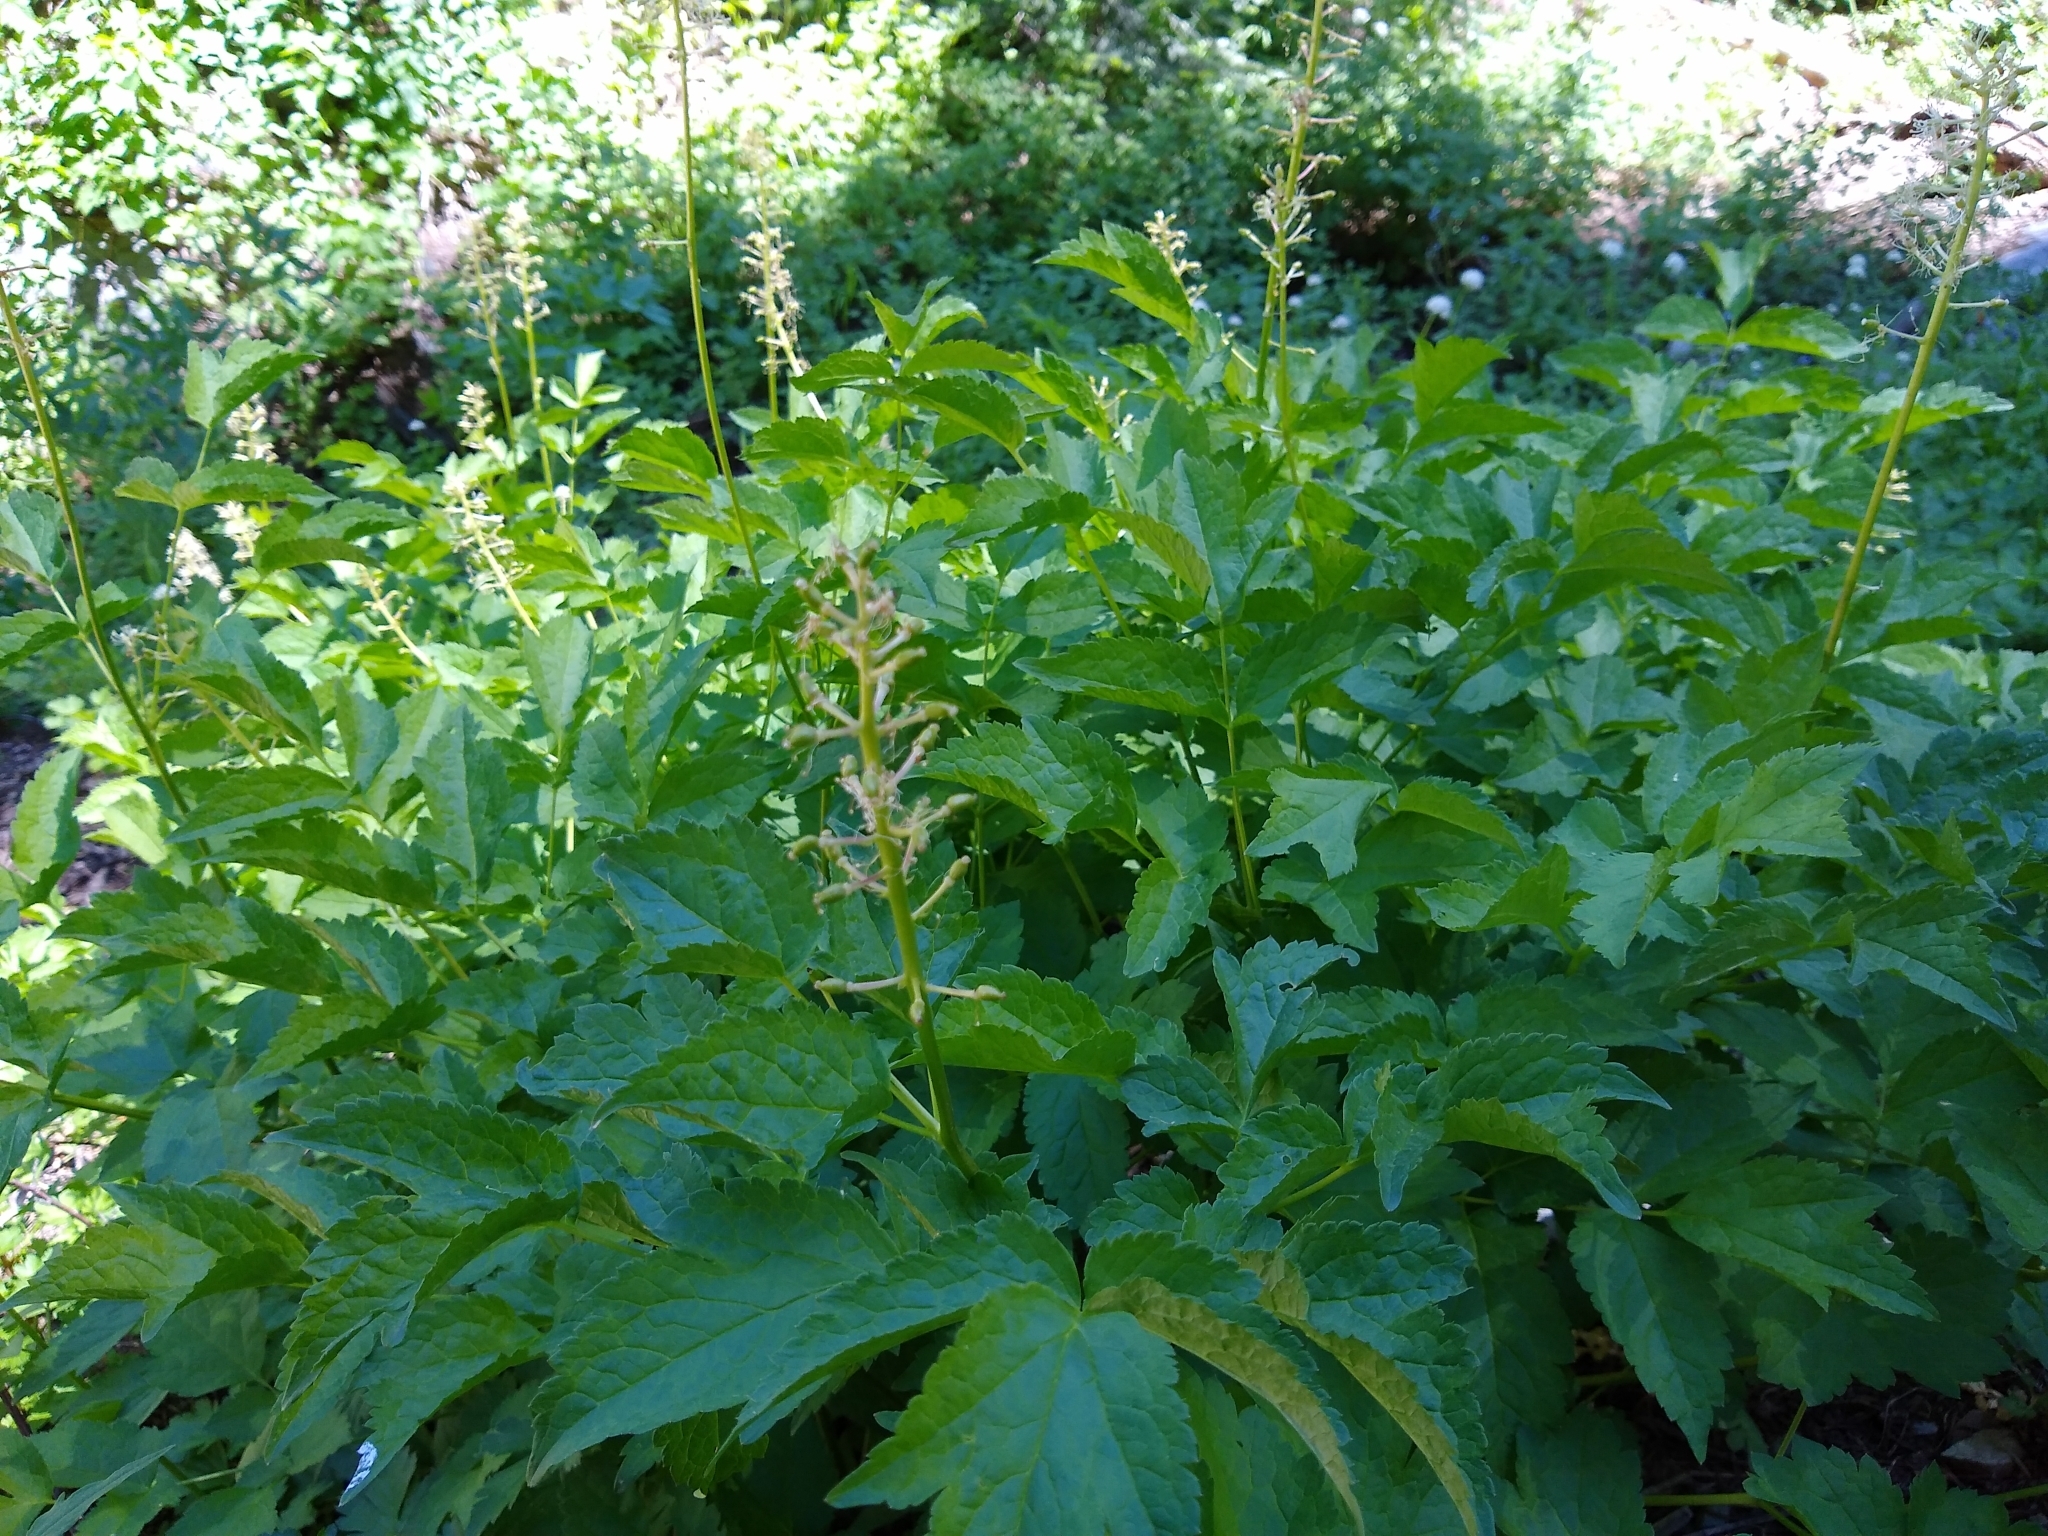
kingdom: Plantae
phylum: Tracheophyta
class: Magnoliopsida
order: Ranunculales
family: Ranunculaceae
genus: Actaea
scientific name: Actaea rubra
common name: Red baneberry
